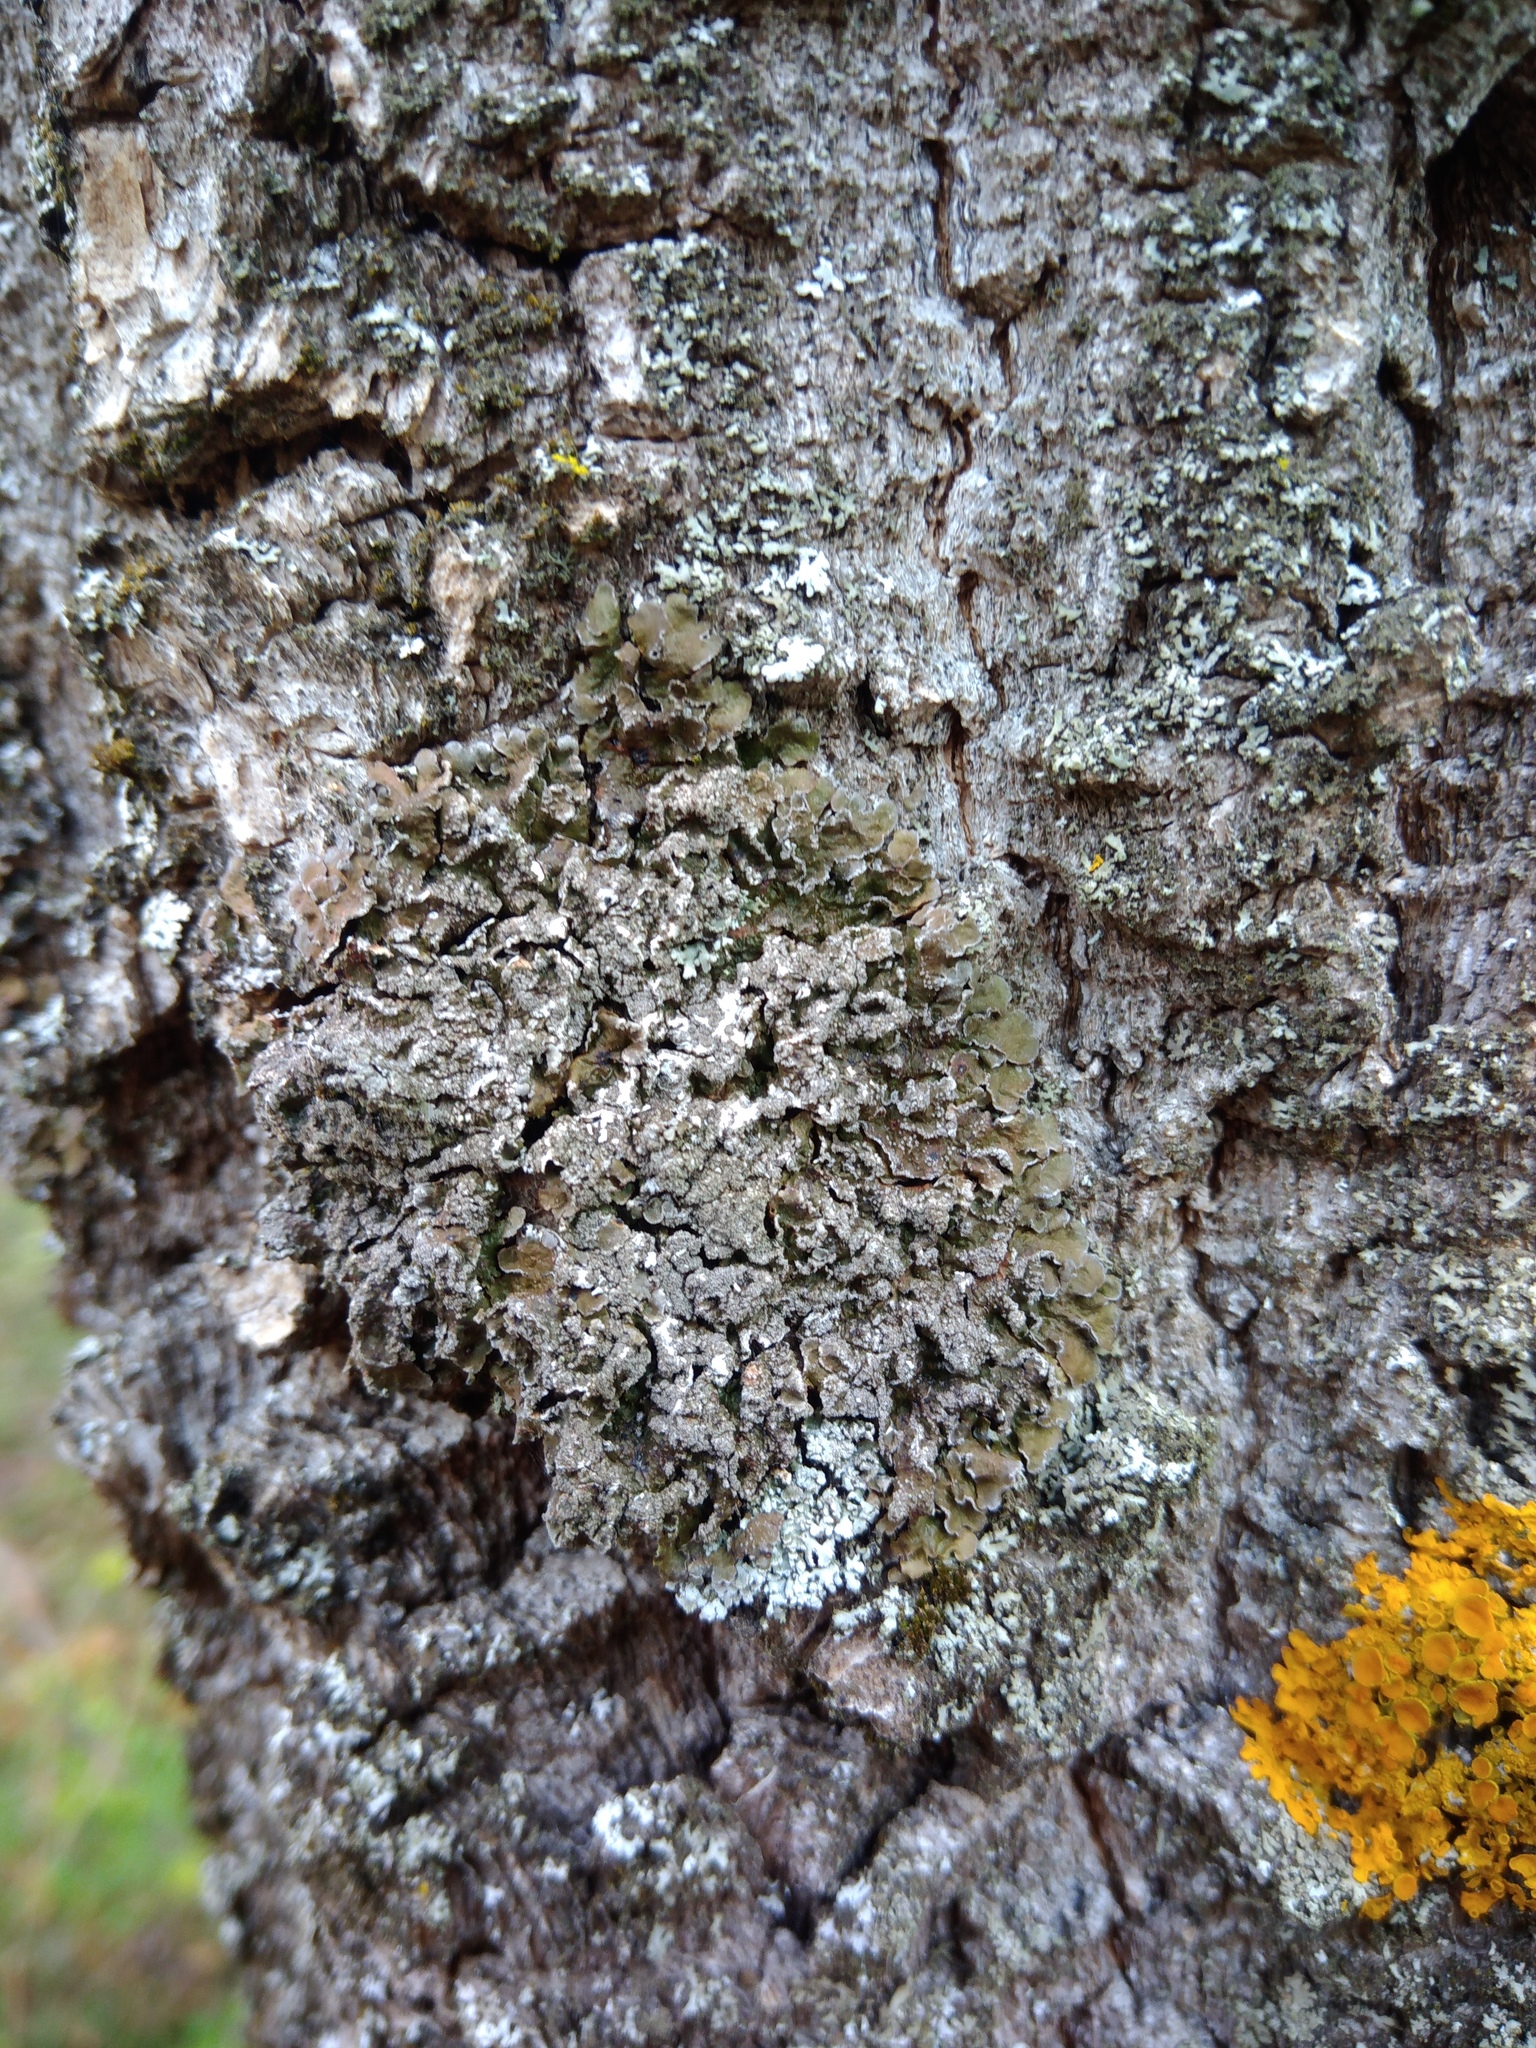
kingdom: Fungi
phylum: Ascomycota
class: Lecanoromycetes
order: Lecanorales
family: Parmeliaceae
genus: Melanelixia
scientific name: Melanelixia subargentifera
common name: Whiskered camouflage lichen
